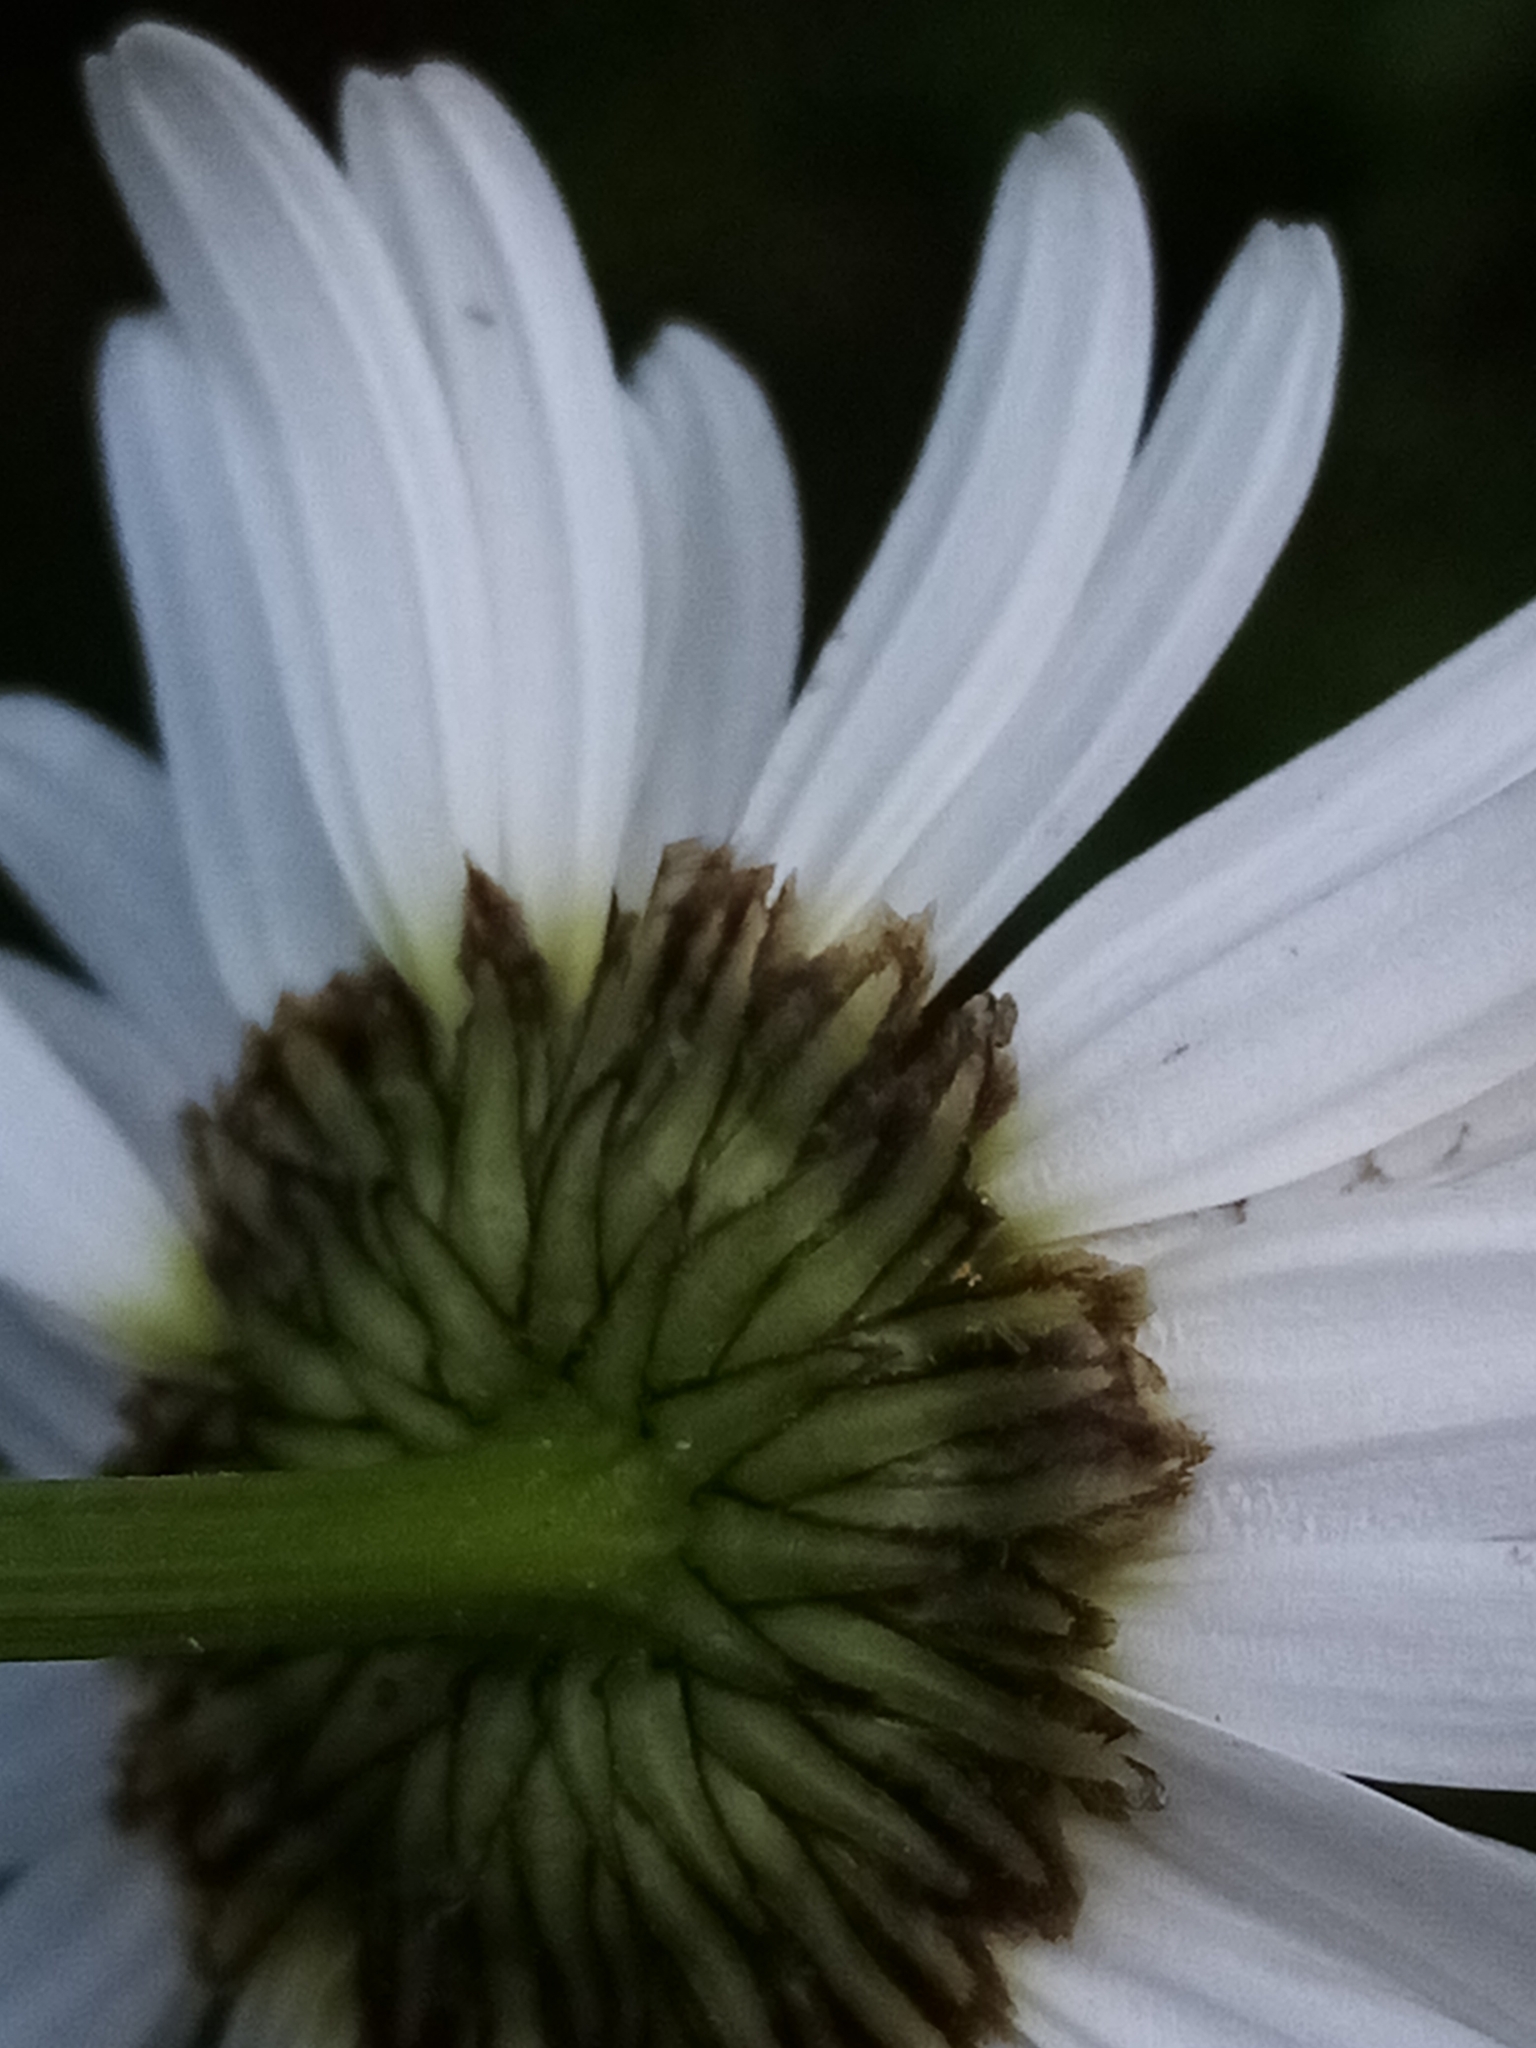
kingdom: Plantae
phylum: Tracheophyta
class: Magnoliopsida
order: Asterales
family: Asteraceae
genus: Leucanthemum
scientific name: Leucanthemum vulgare
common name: Oxeye daisy
